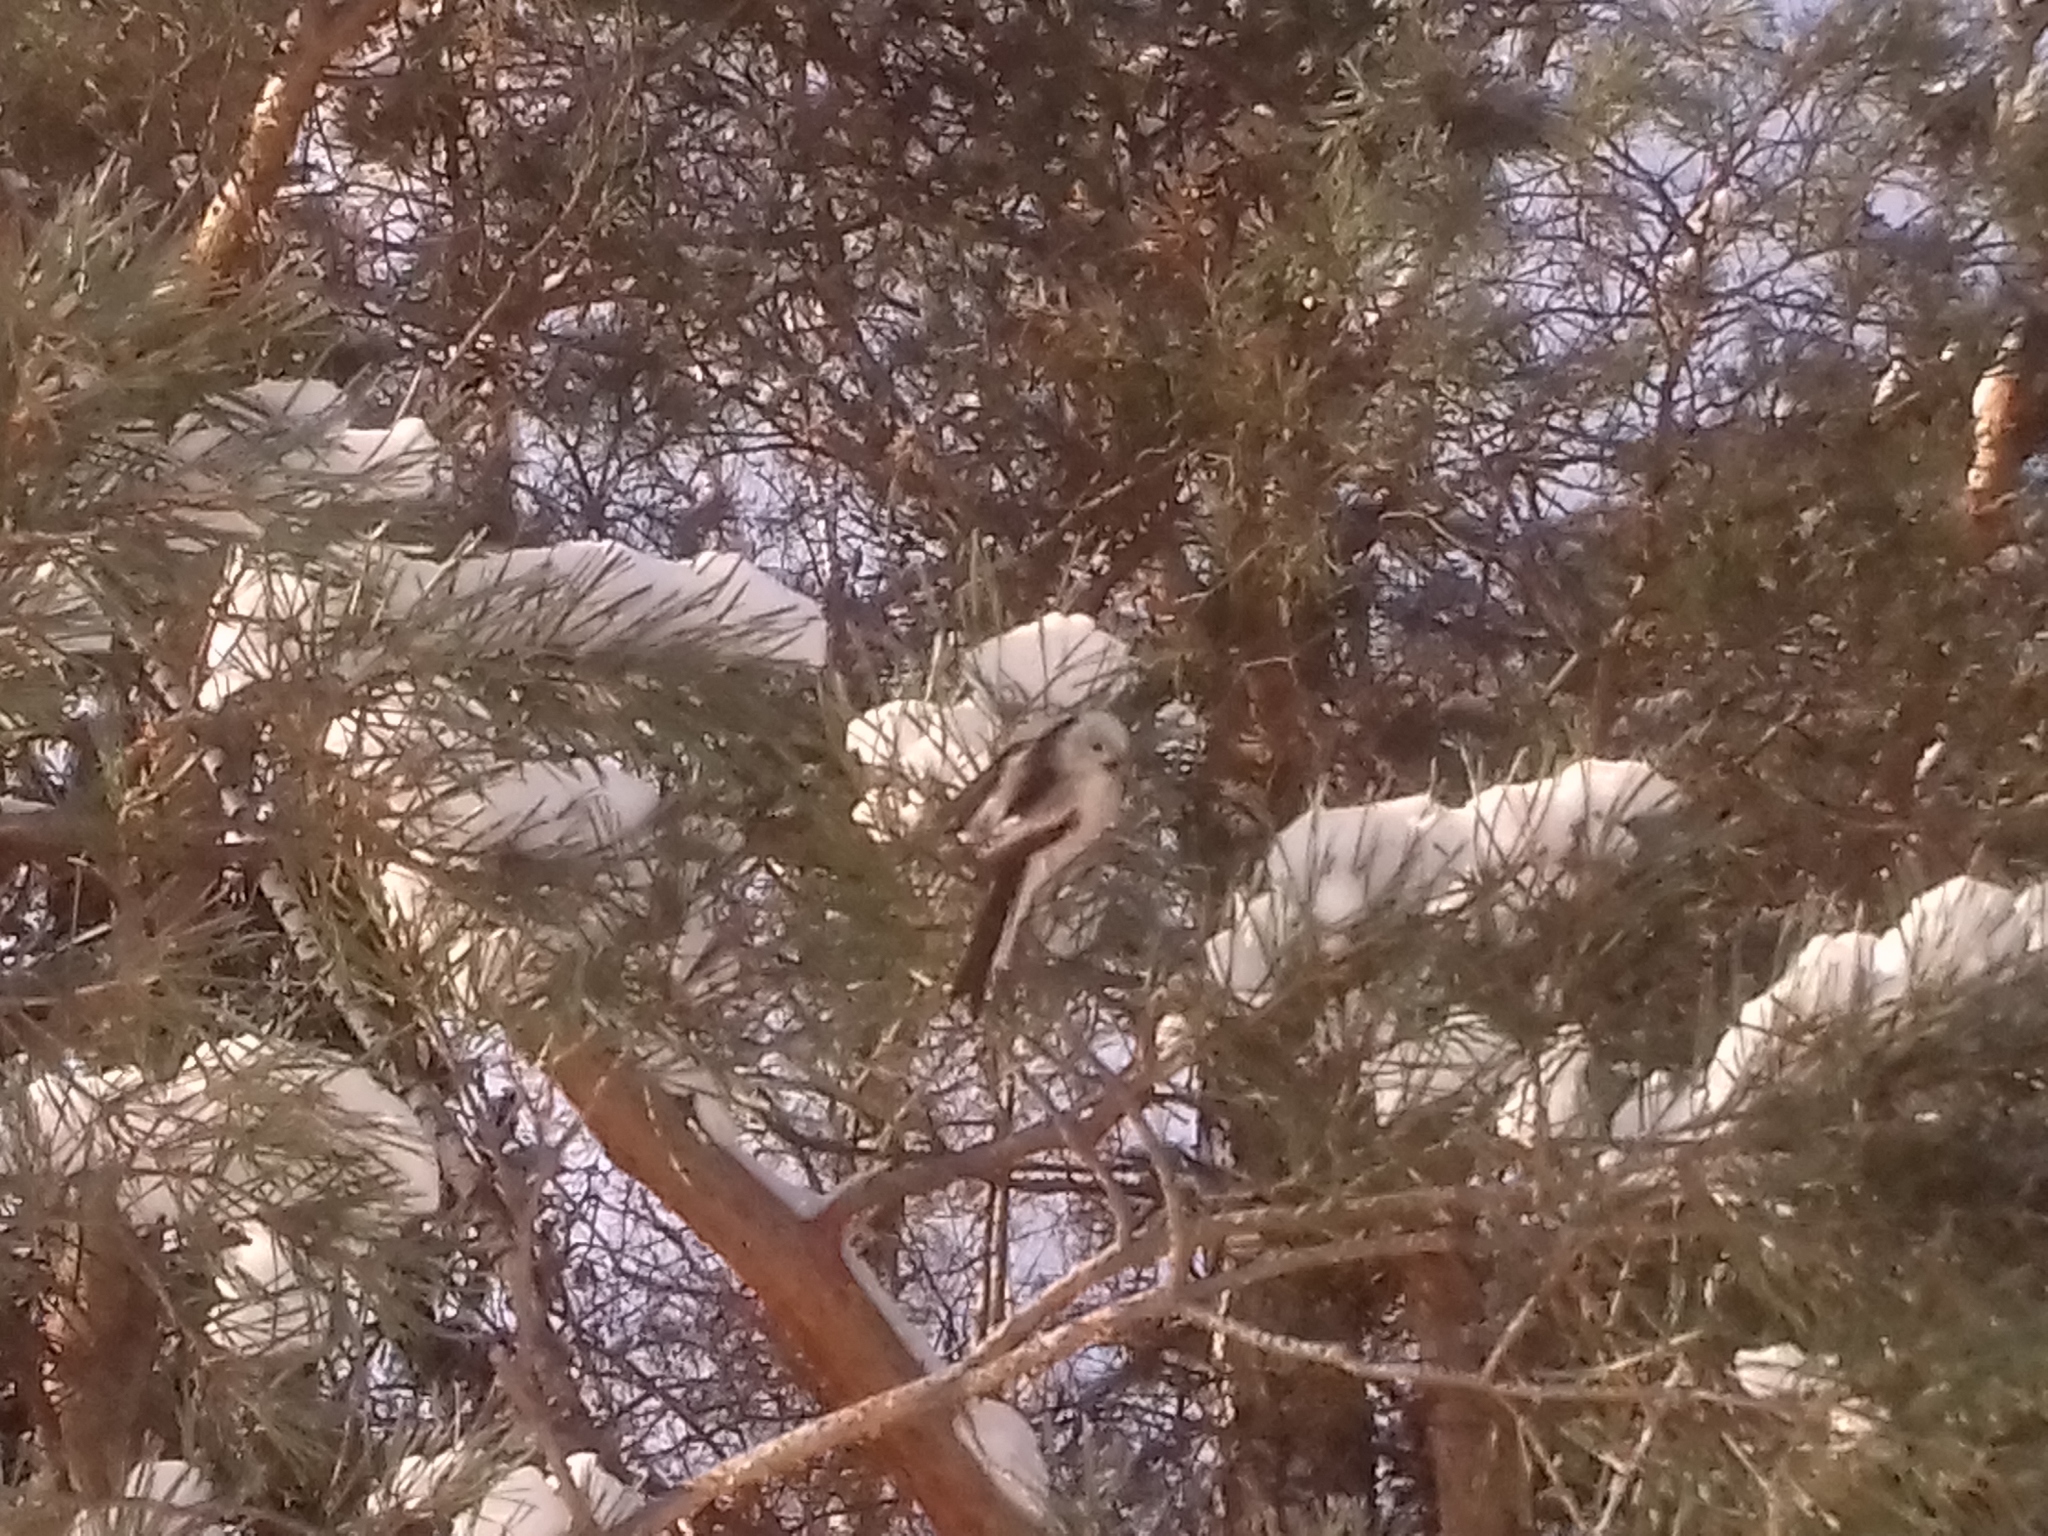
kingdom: Animalia
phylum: Chordata
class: Aves
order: Passeriformes
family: Aegithalidae
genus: Aegithalos
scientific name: Aegithalos caudatus
